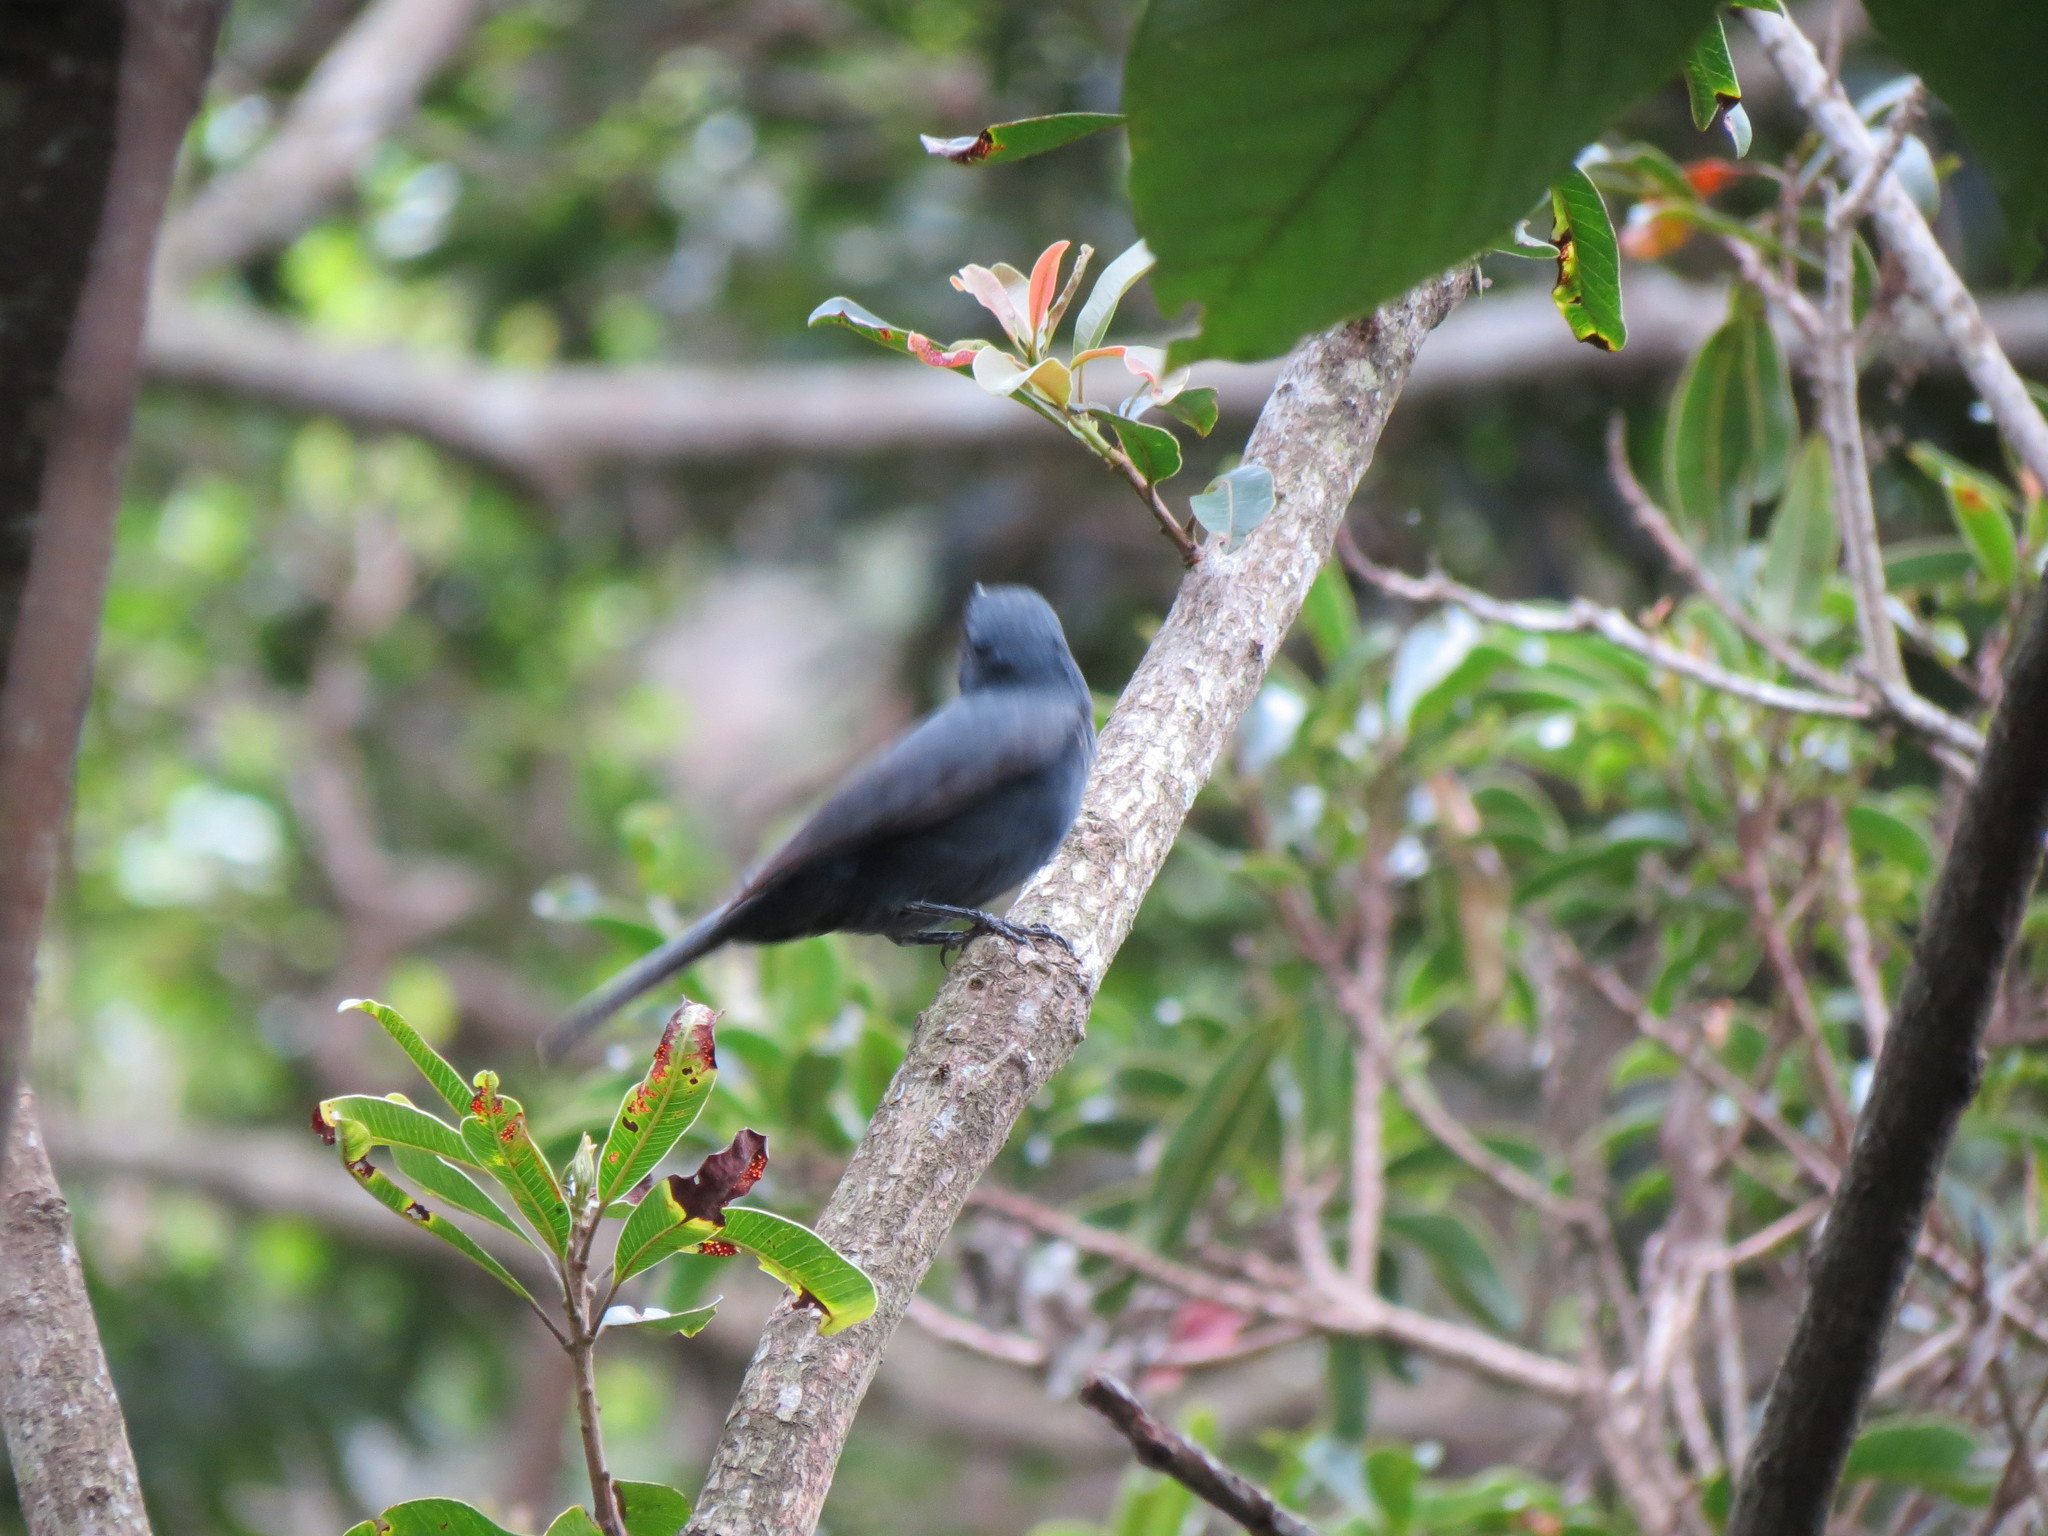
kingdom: Animalia
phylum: Chordata
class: Aves
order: Passeriformes
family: Muscicapidae
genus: Melaenornis
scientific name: Melaenornis pammelaina
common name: Southern black flycatcher
